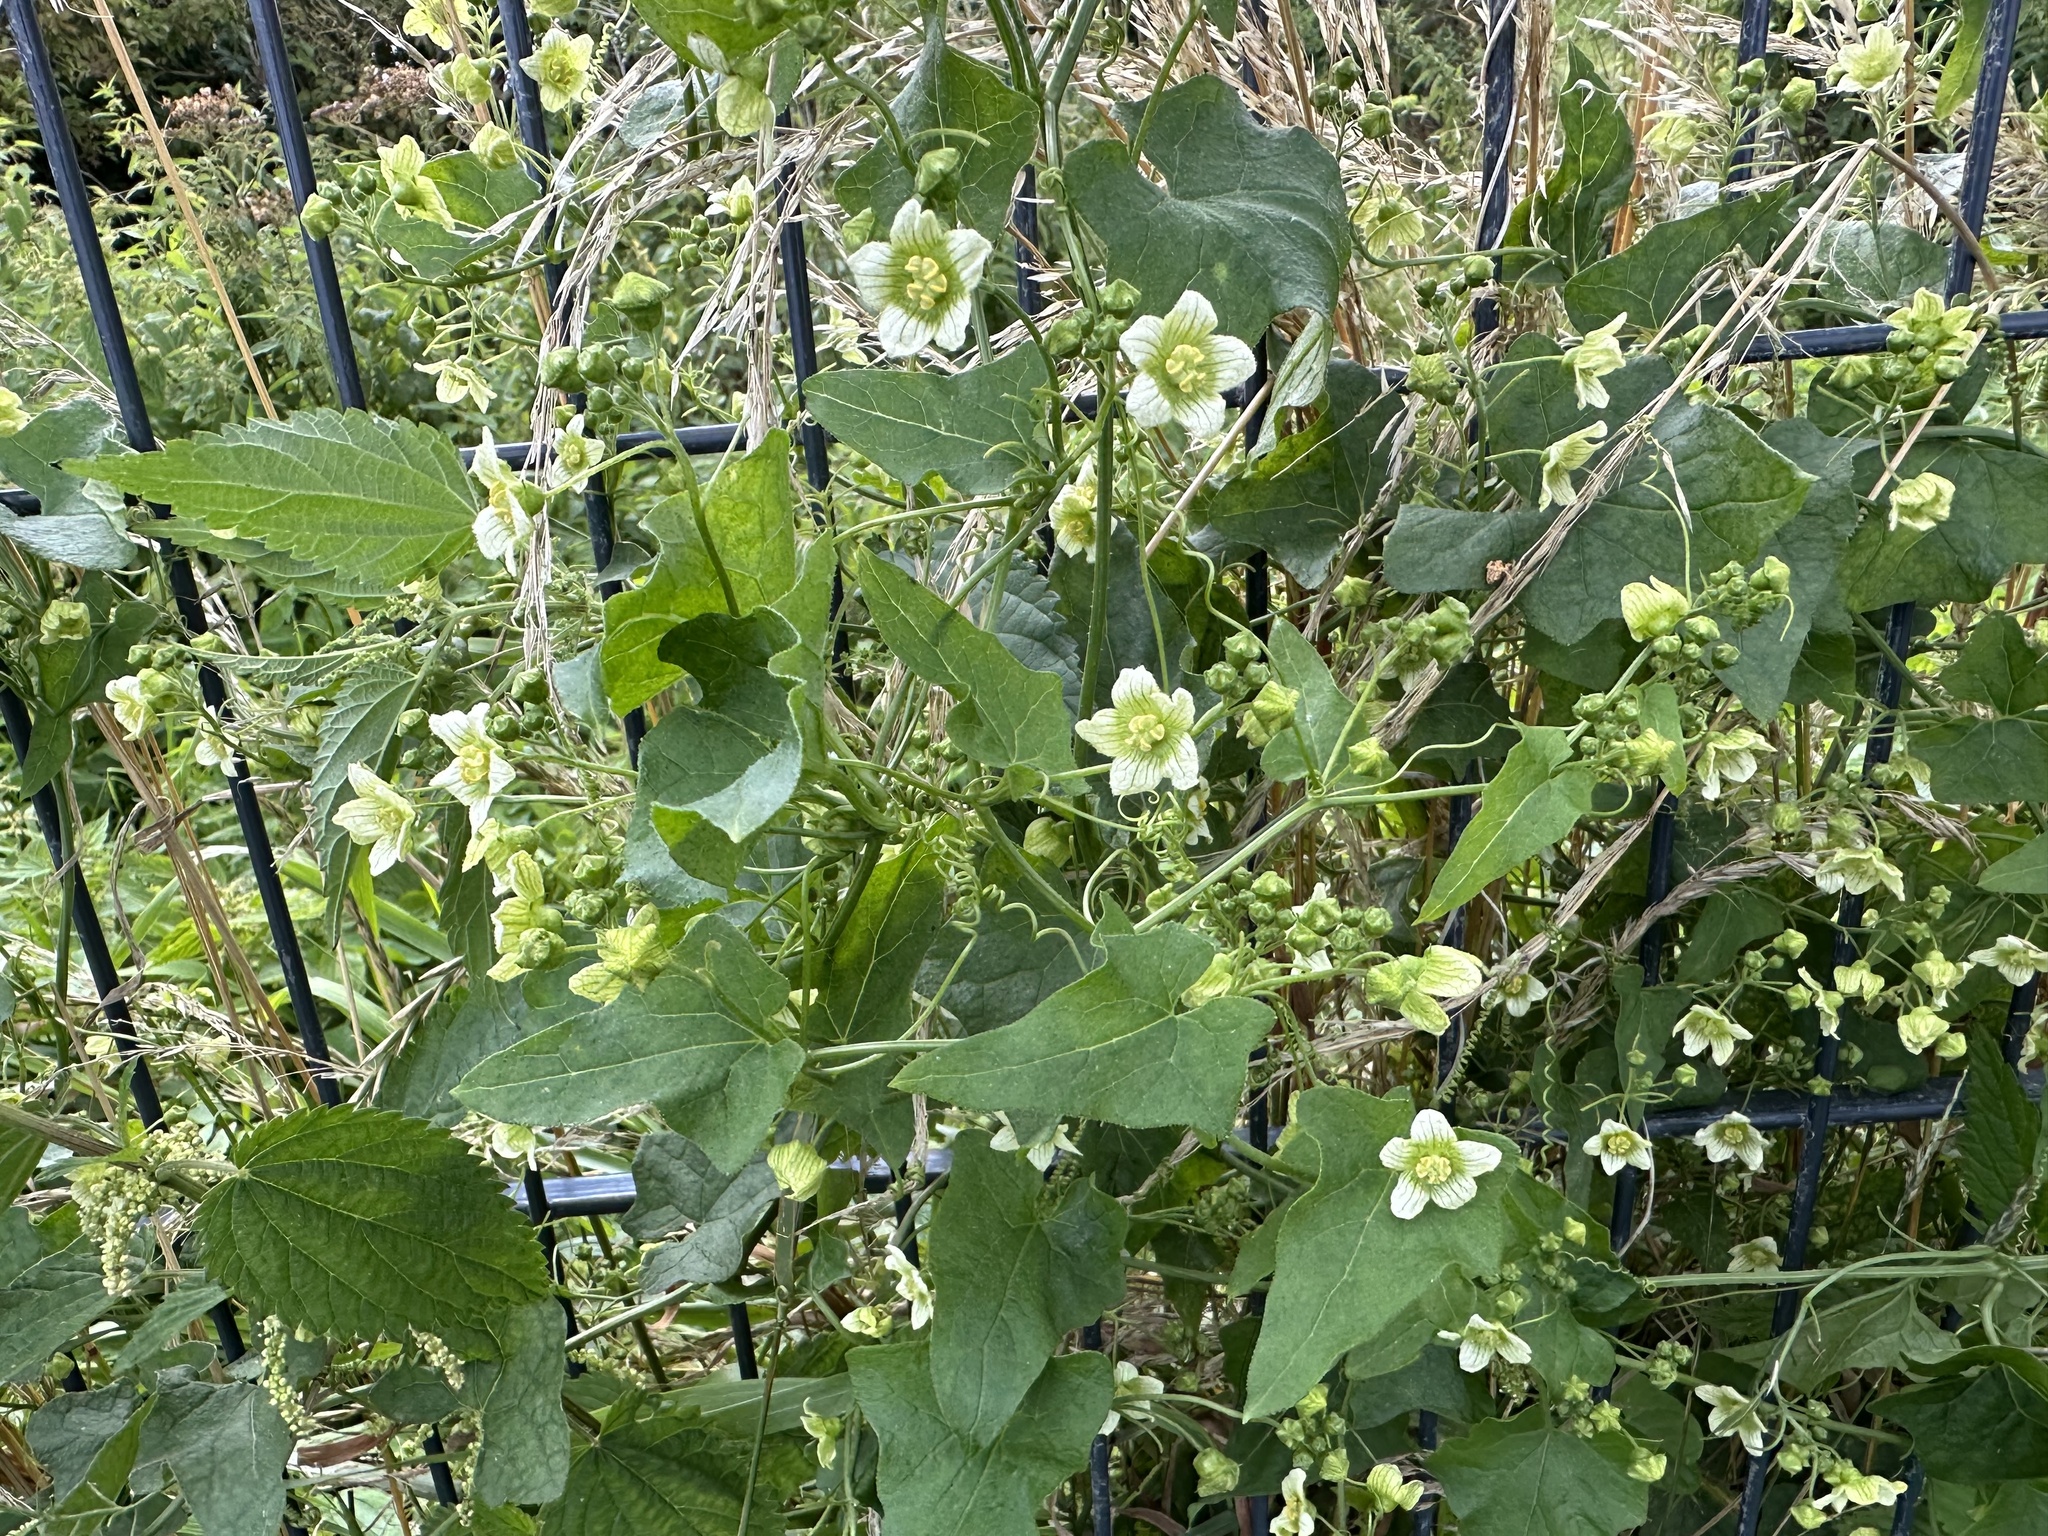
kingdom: Plantae
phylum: Tracheophyta
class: Magnoliopsida
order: Cucurbitales
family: Cucurbitaceae
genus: Bryonia
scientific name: Bryonia cretica
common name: Cretan bryony
